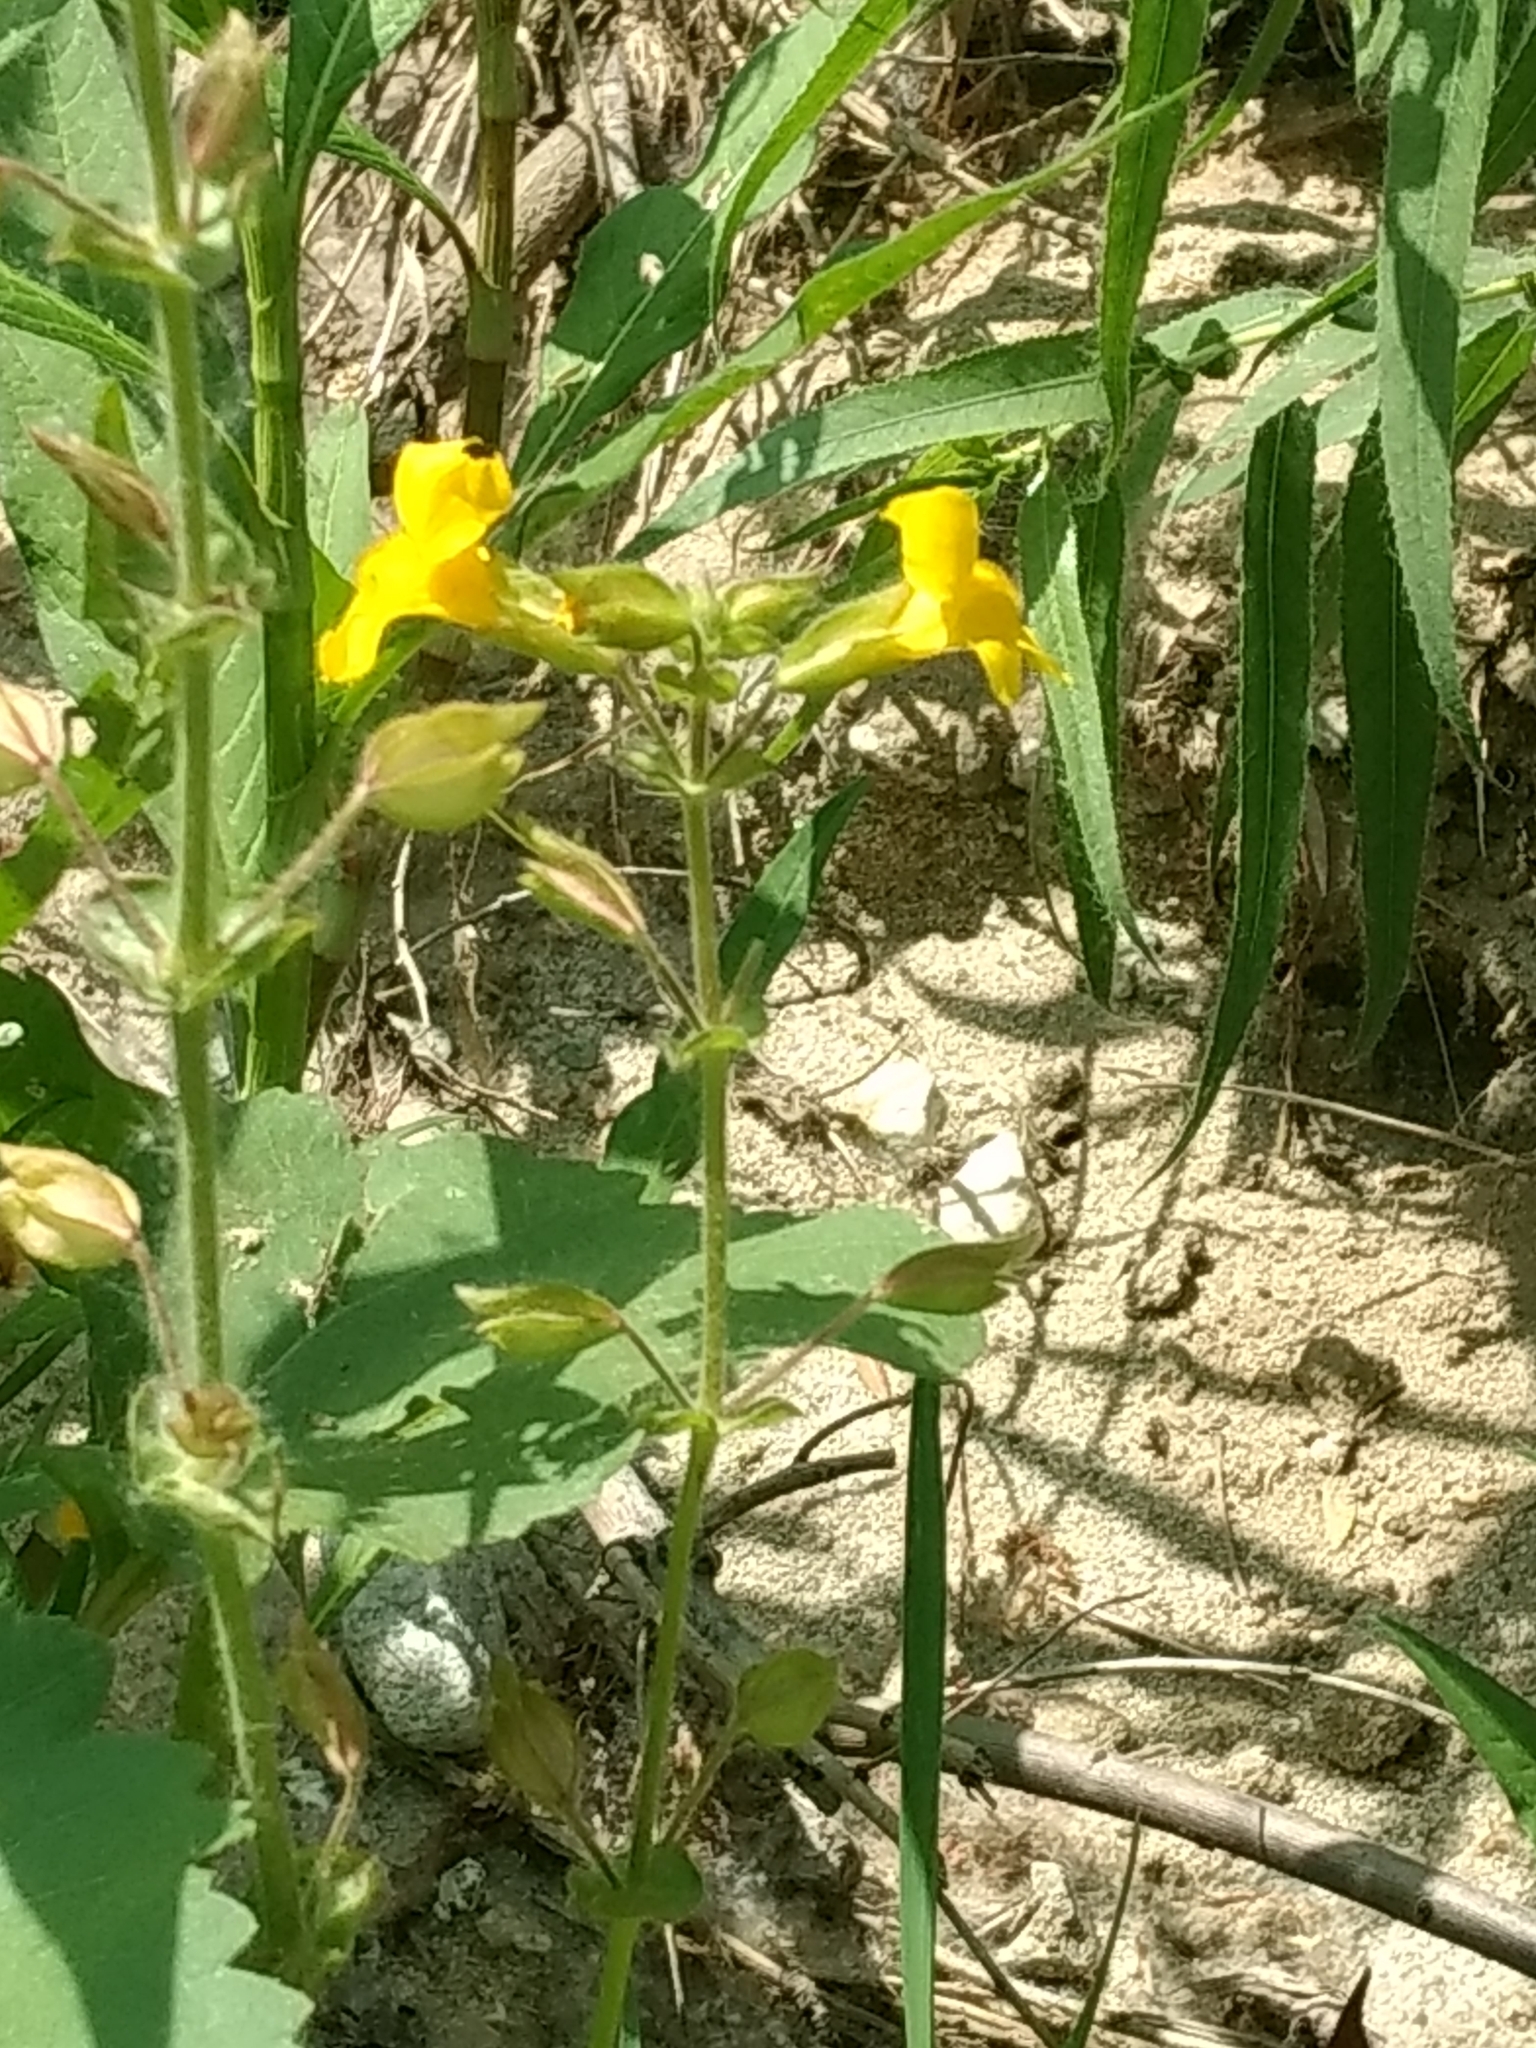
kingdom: Plantae
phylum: Tracheophyta
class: Magnoliopsida
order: Lamiales
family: Phrymaceae
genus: Erythranthe
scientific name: Erythranthe guttata
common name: Monkeyflower
